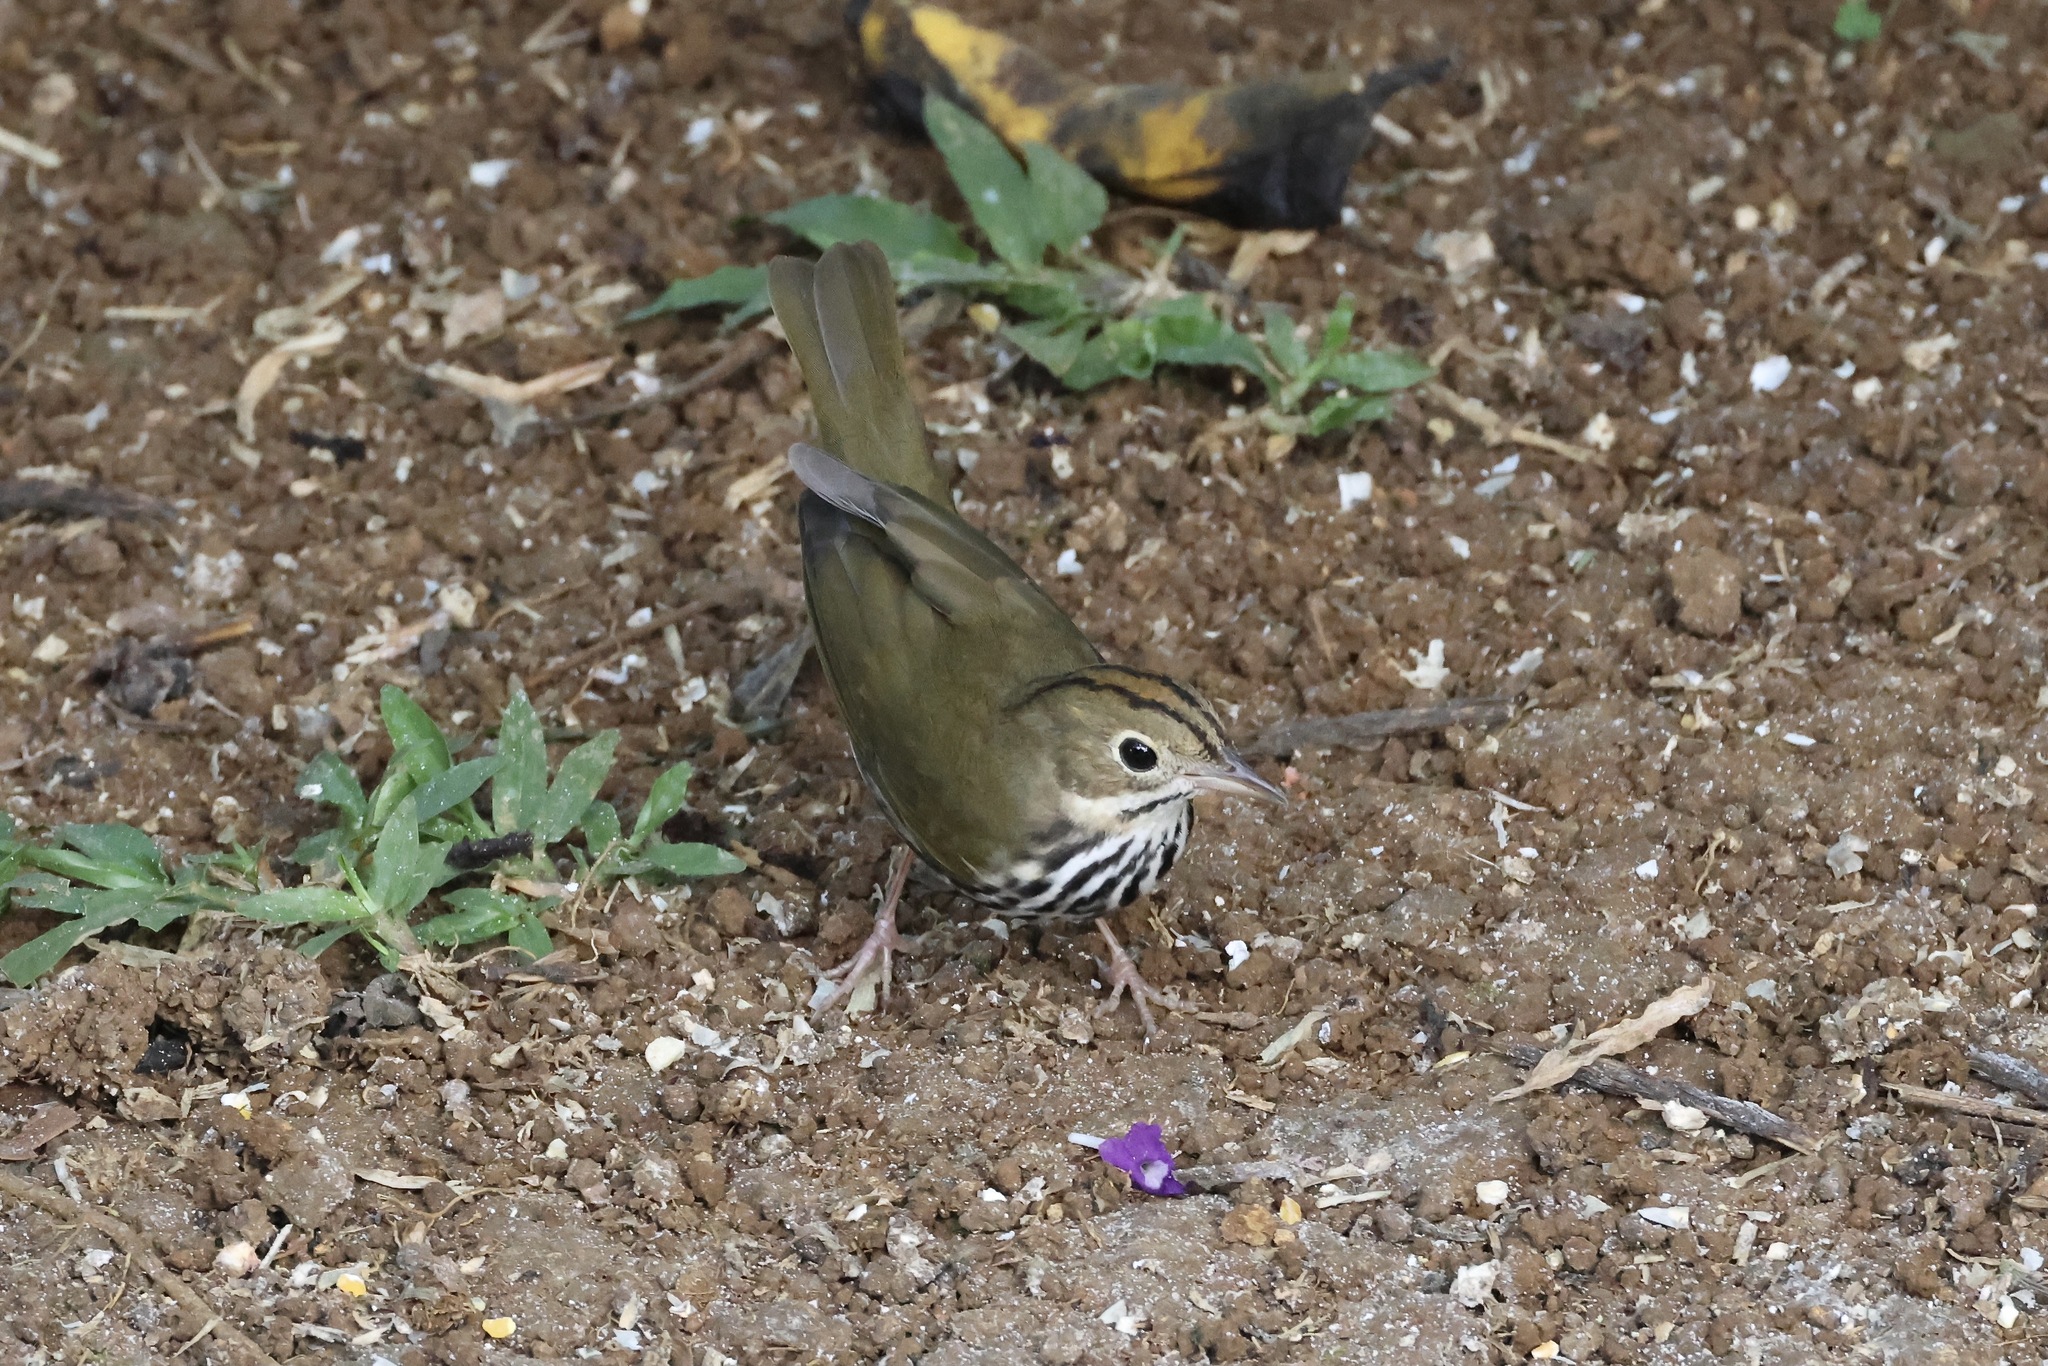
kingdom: Animalia
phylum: Chordata
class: Aves
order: Passeriformes
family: Parulidae
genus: Seiurus
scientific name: Seiurus aurocapilla
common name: Ovenbird
